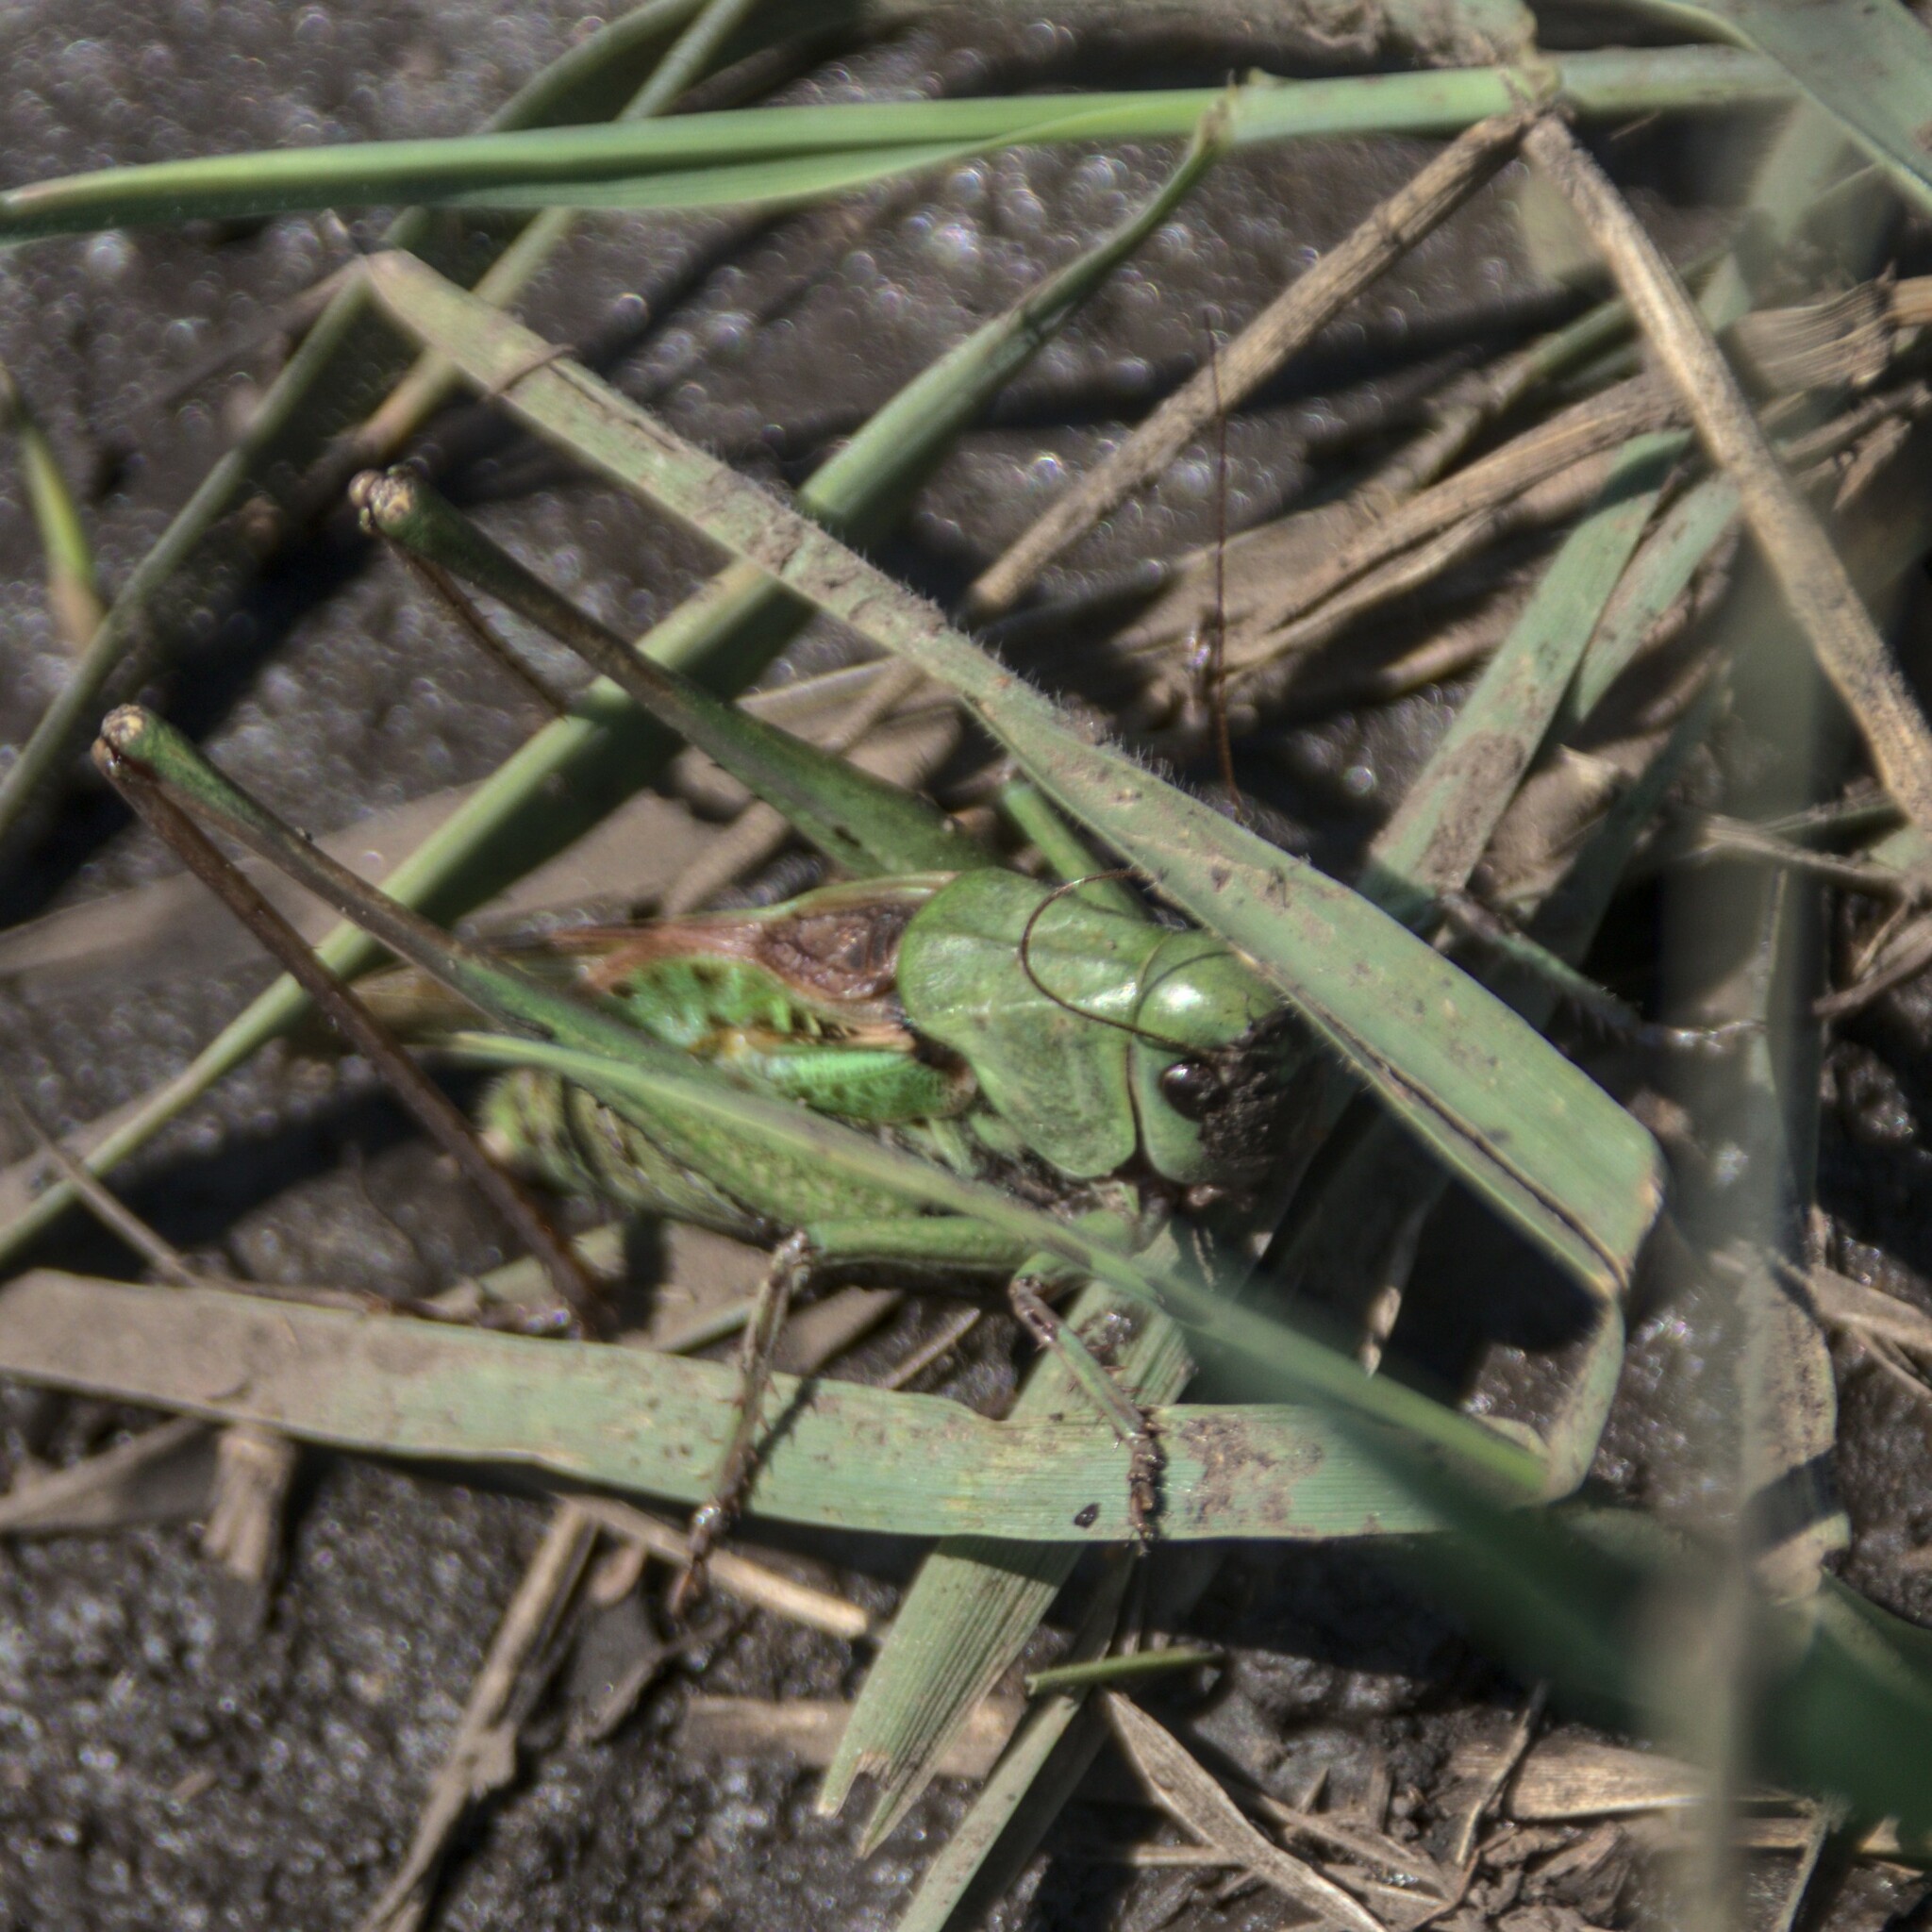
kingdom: Animalia
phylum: Arthropoda
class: Insecta
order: Orthoptera
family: Tettigoniidae
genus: Decticus
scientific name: Decticus verrucivorus
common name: Wart-biter
